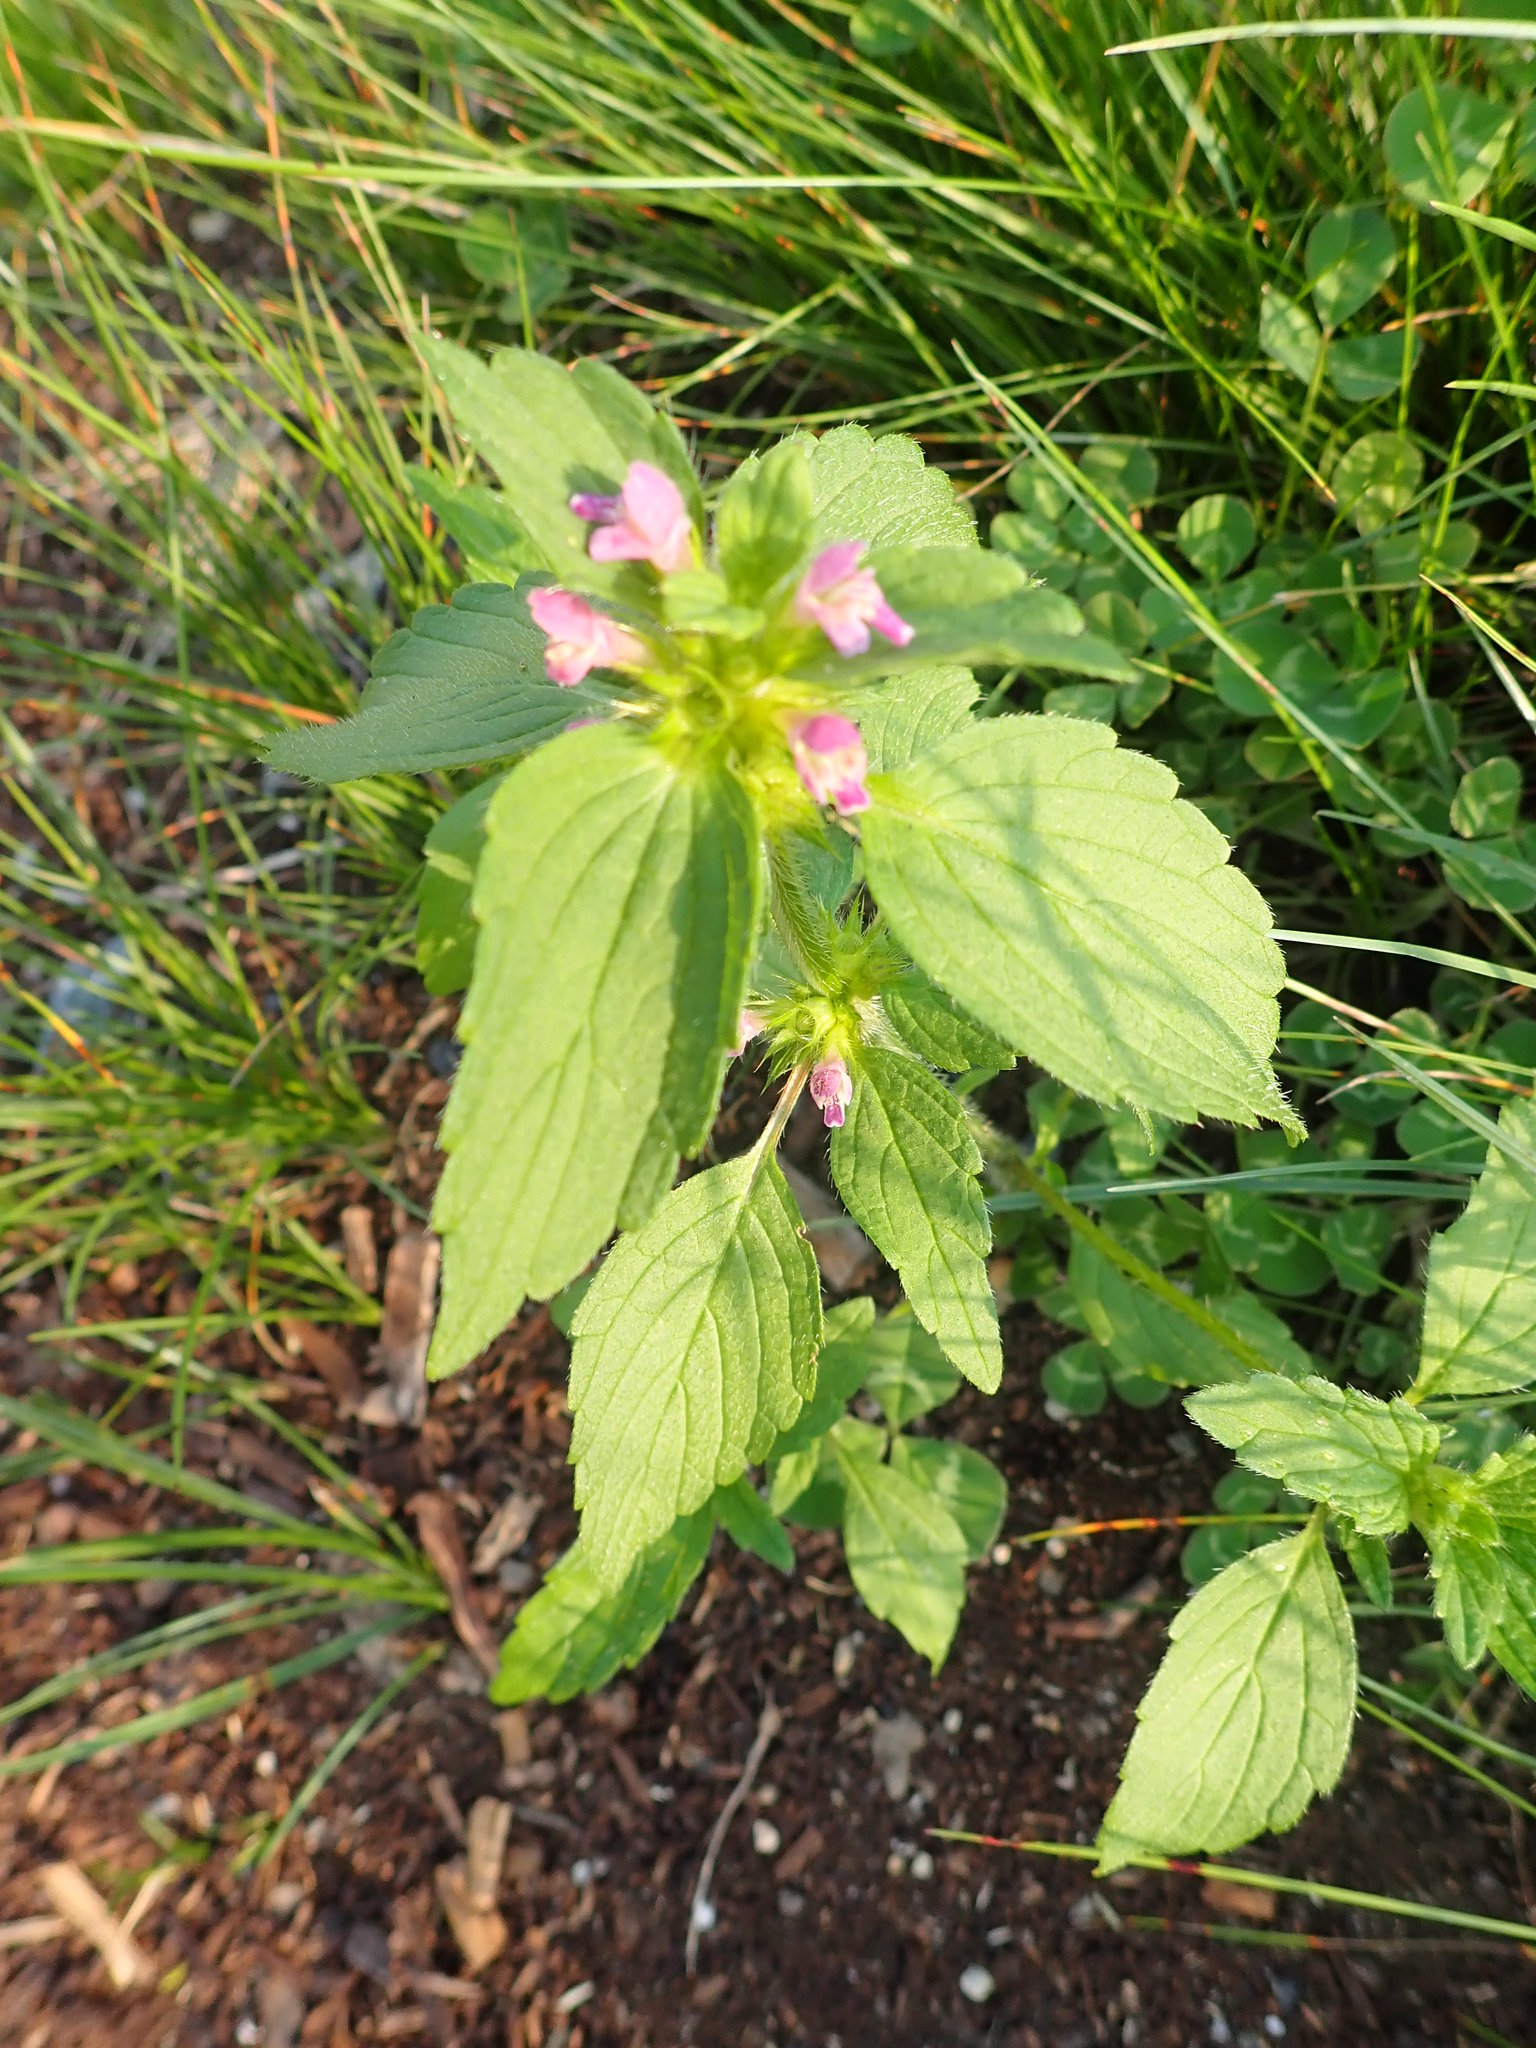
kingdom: Plantae
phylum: Tracheophyta
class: Magnoliopsida
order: Lamiales
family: Lamiaceae
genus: Galeopsis
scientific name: Galeopsis bifida
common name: Bifid hemp-nettle
